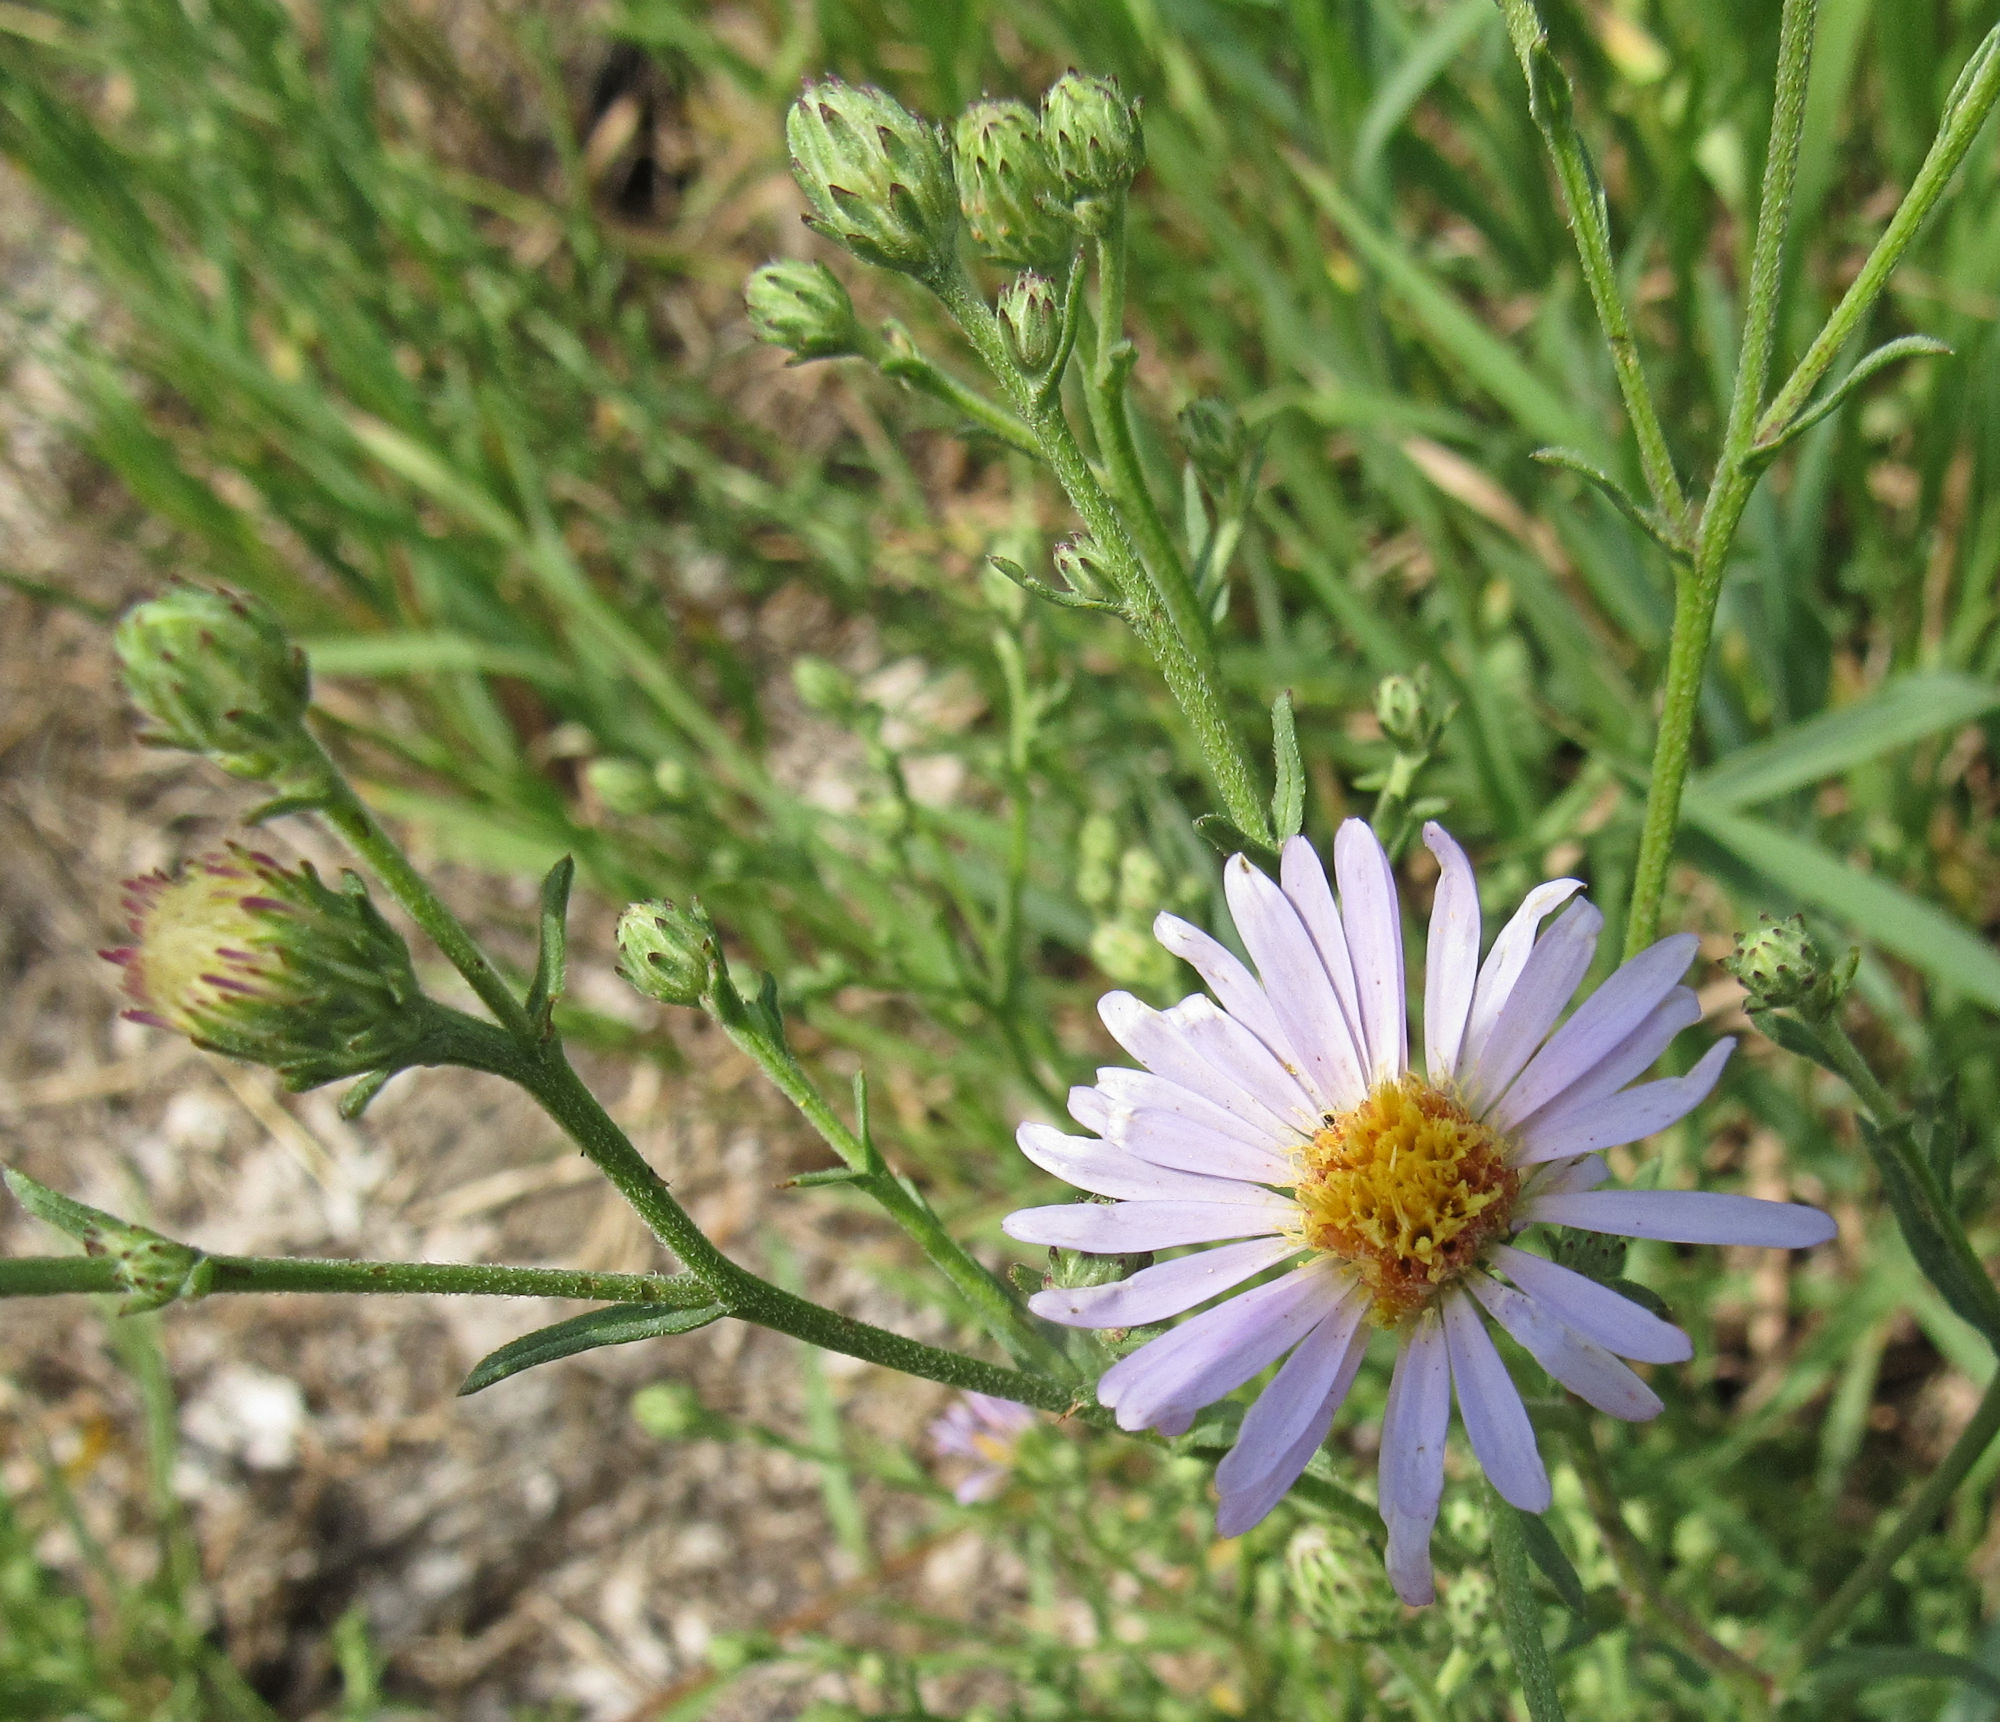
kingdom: Plantae
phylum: Tracheophyta
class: Magnoliopsida
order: Asterales
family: Asteraceae
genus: Symphyotrichum
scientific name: Symphyotrichum chilense
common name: Pacific aster
